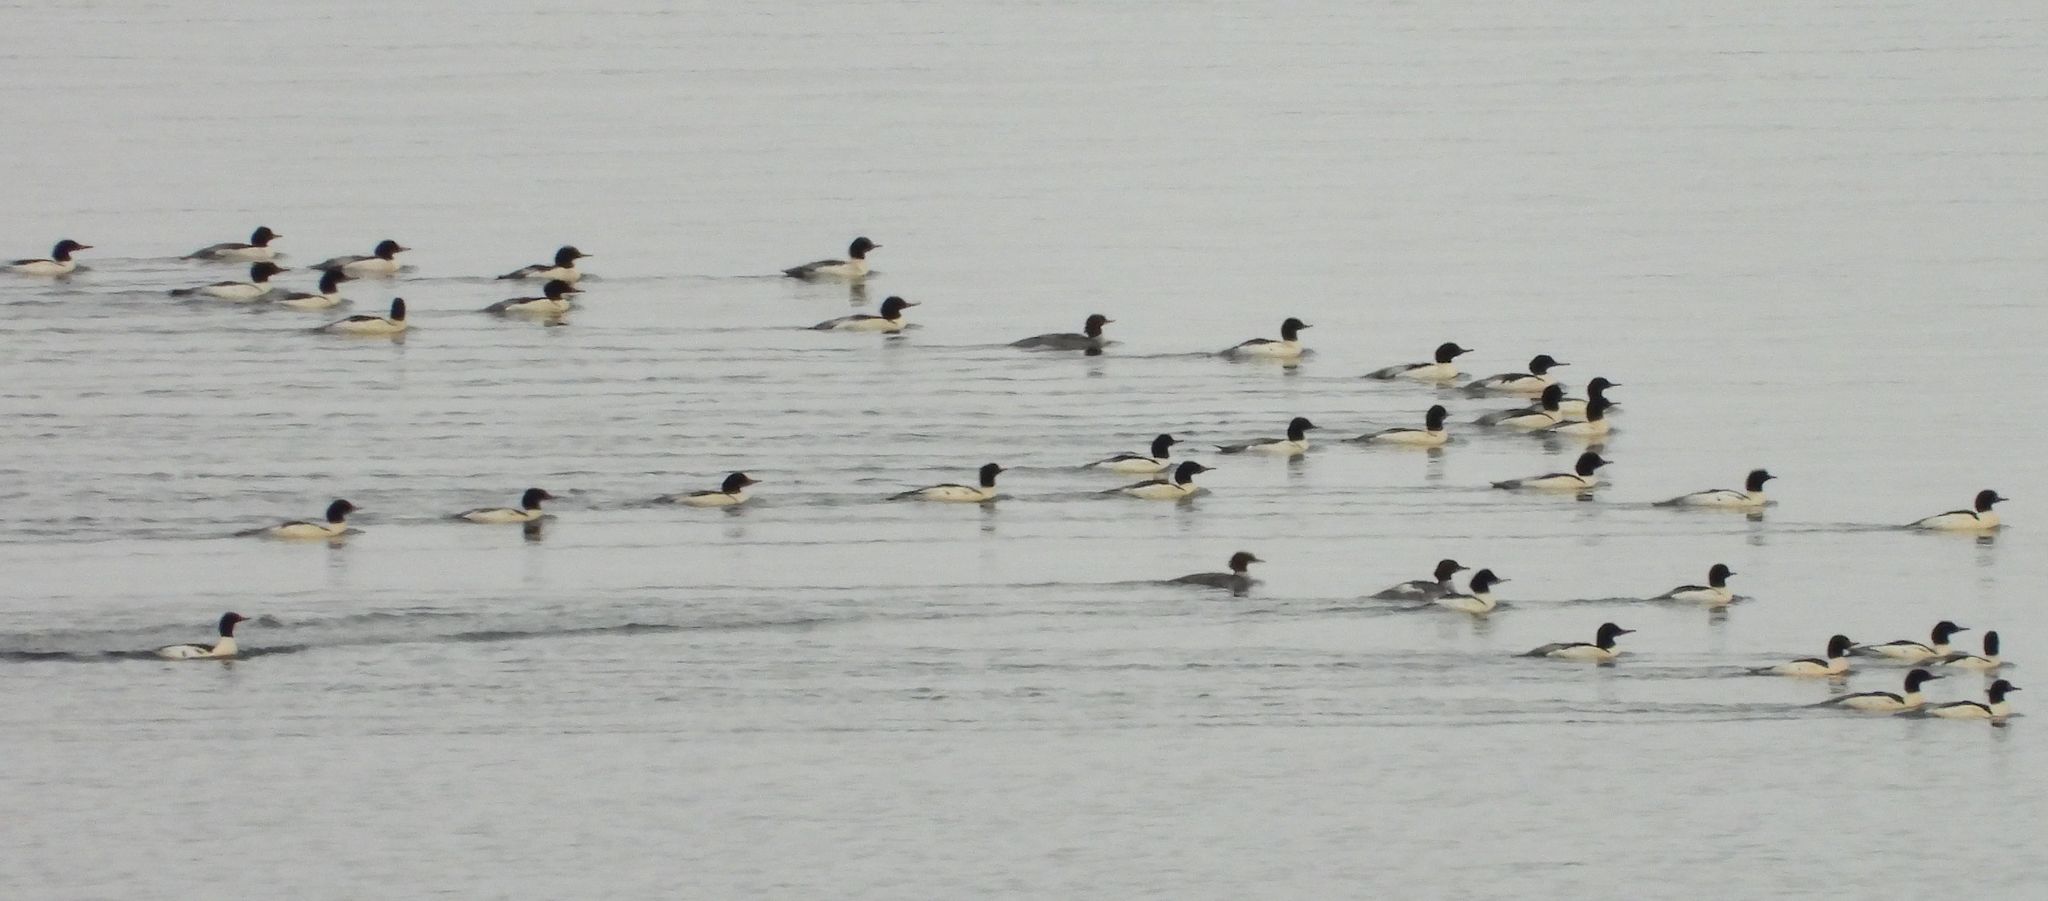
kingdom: Animalia
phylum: Chordata
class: Aves
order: Anseriformes
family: Anatidae
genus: Mergus
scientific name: Mergus merganser
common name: Common merganser
